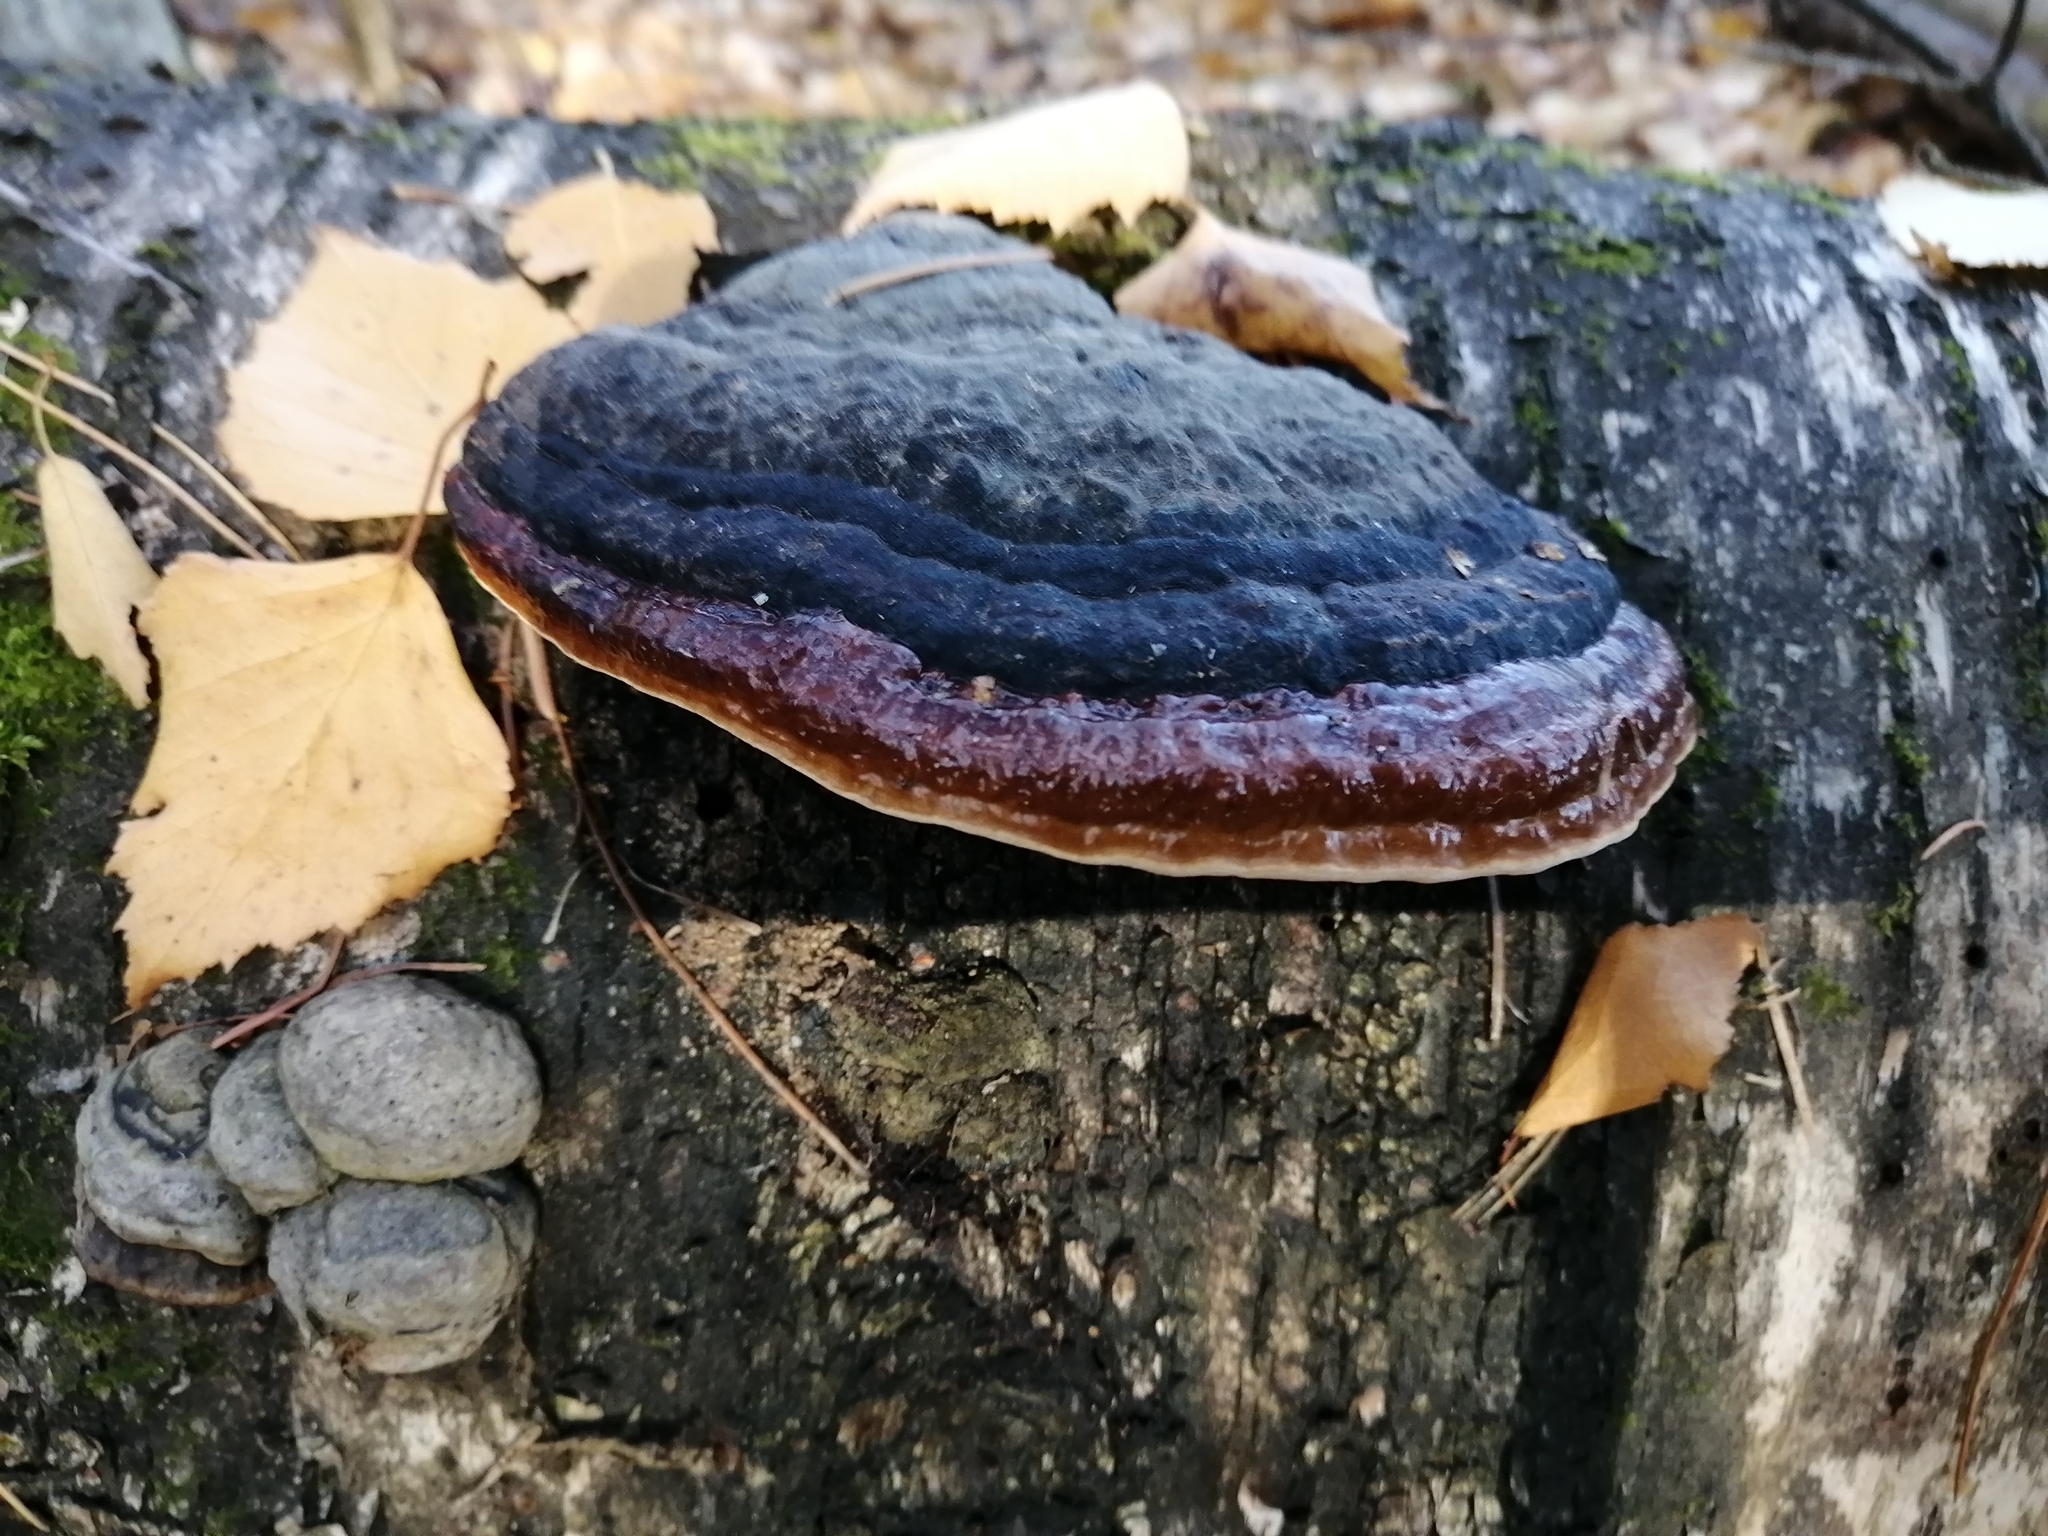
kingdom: Fungi
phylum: Basidiomycota
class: Agaricomycetes
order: Polyporales
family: Fomitopsidaceae
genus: Fomitopsis
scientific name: Fomitopsis pinicola
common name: Red-belted bracket
